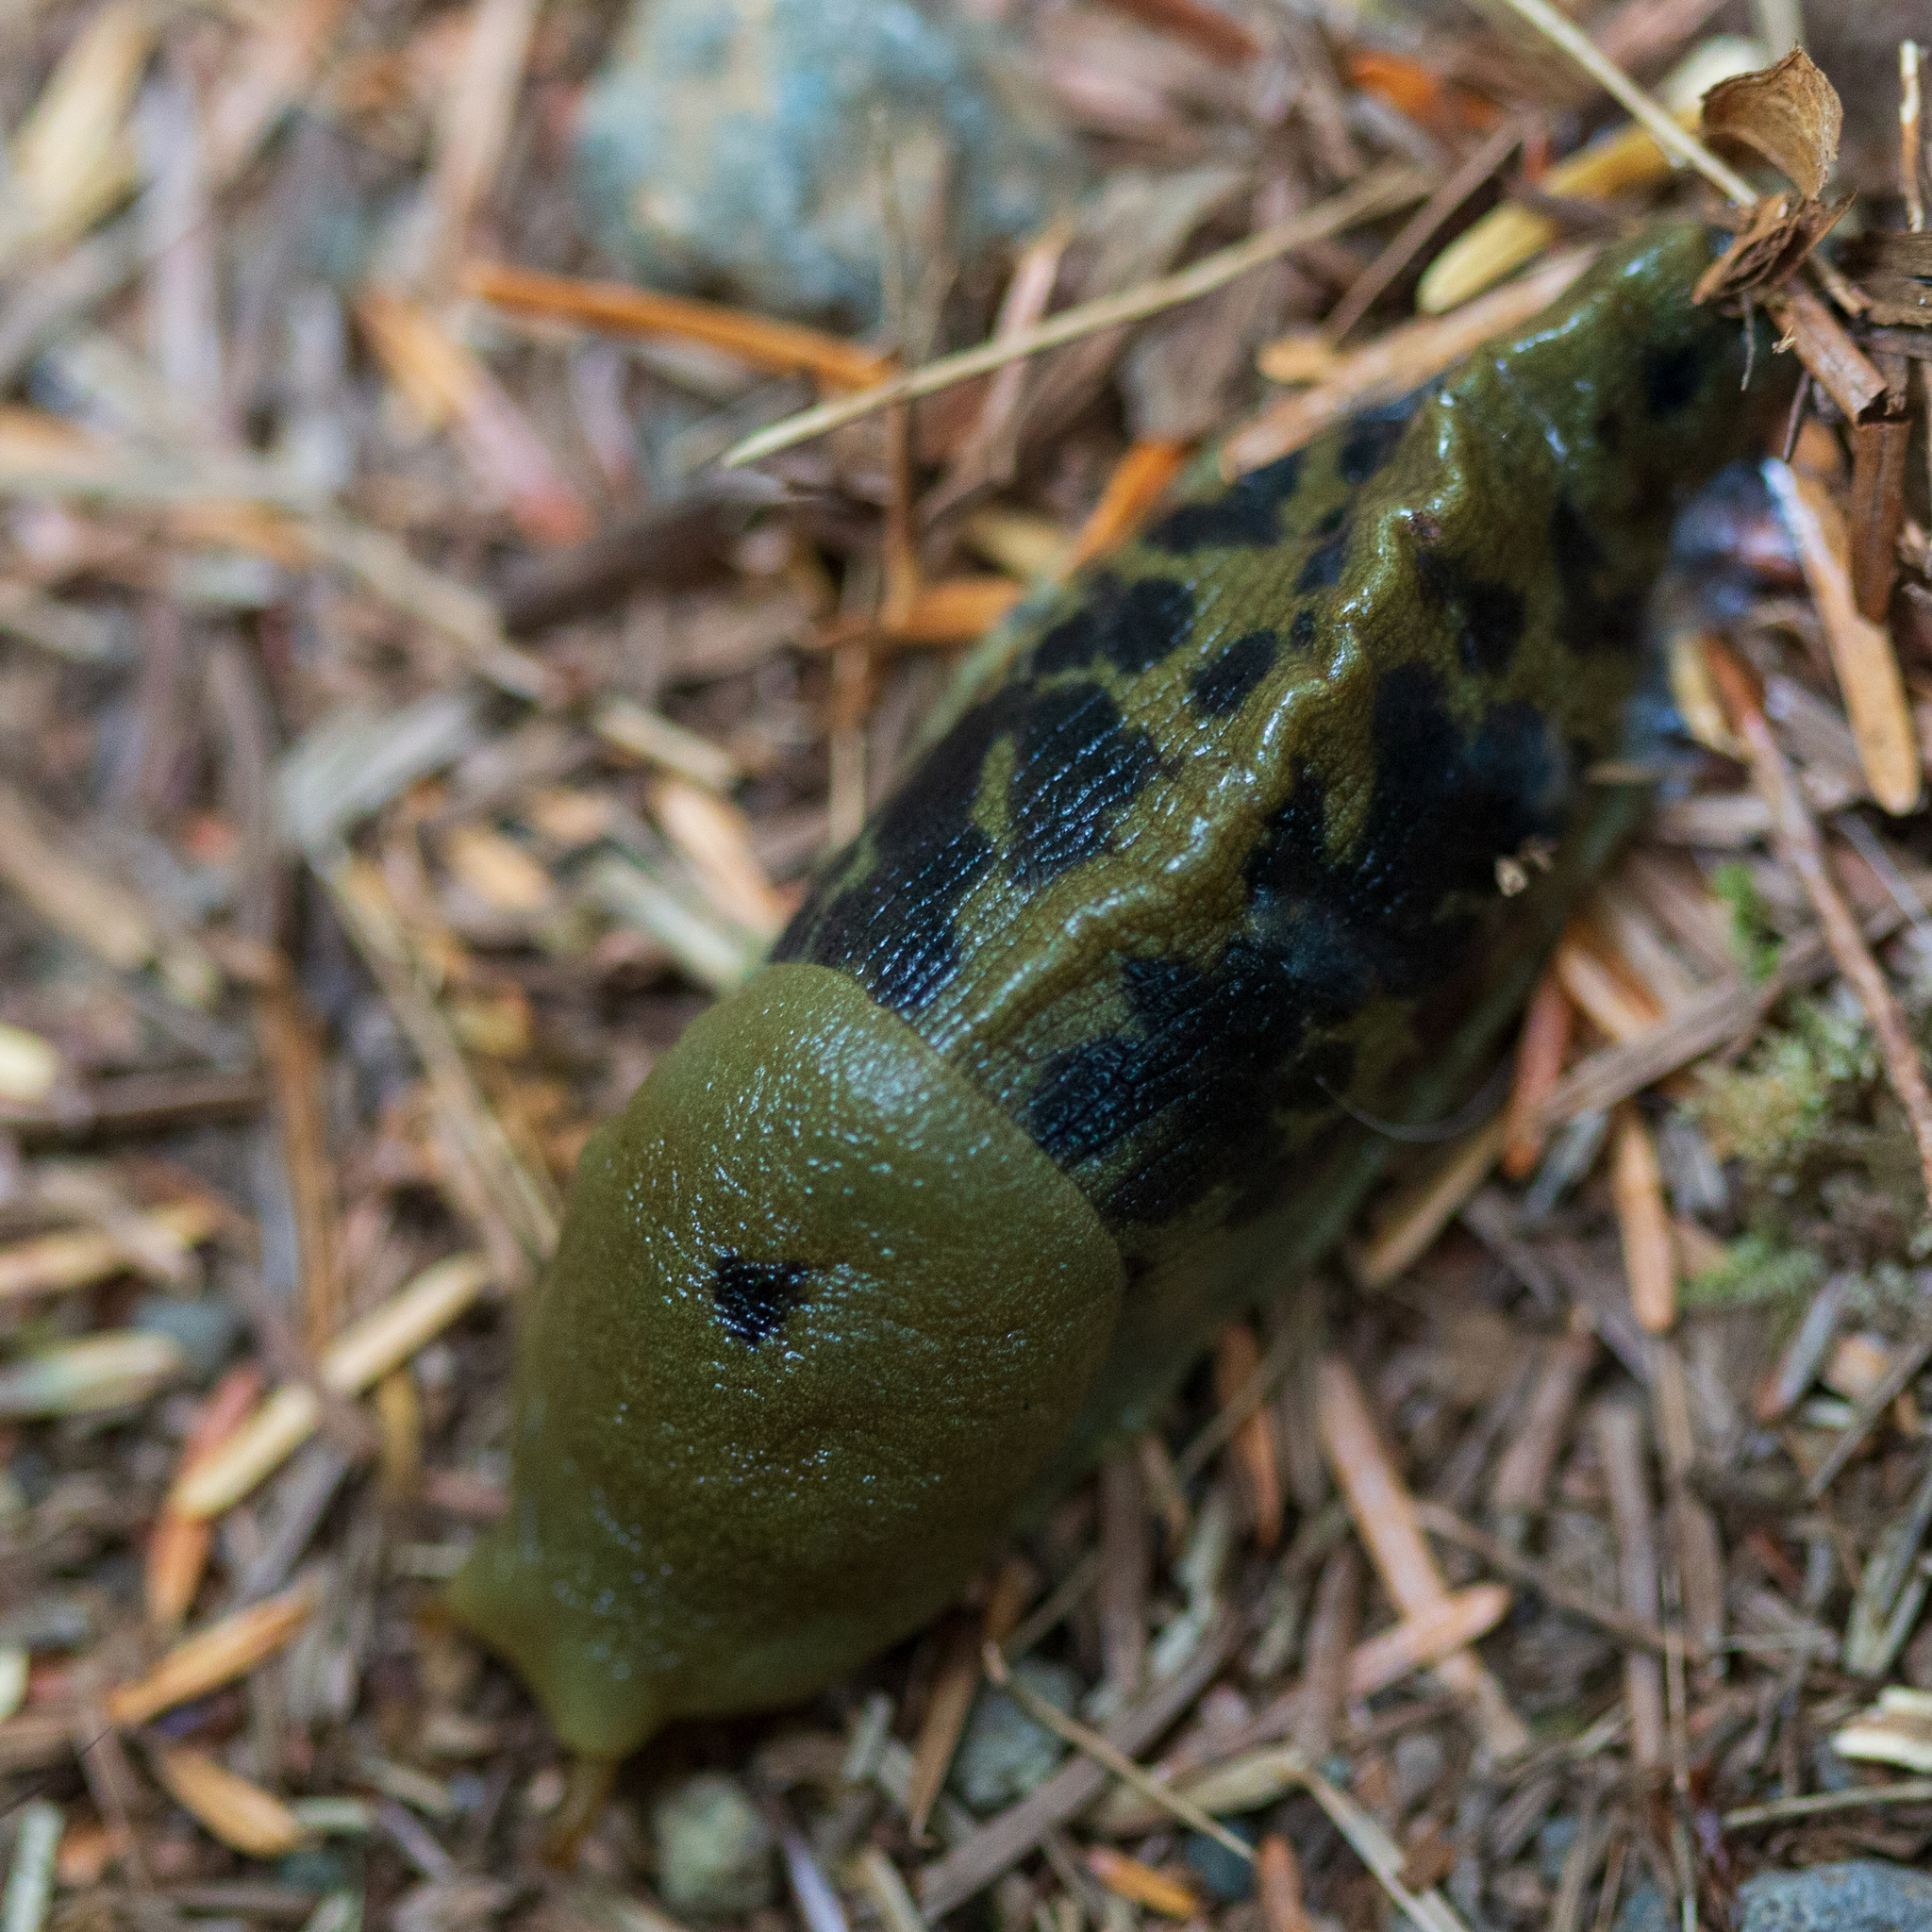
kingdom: Animalia
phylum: Mollusca
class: Gastropoda
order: Stylommatophora
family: Ariolimacidae
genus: Ariolimax
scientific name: Ariolimax columbianus
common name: Pacific banana slug
